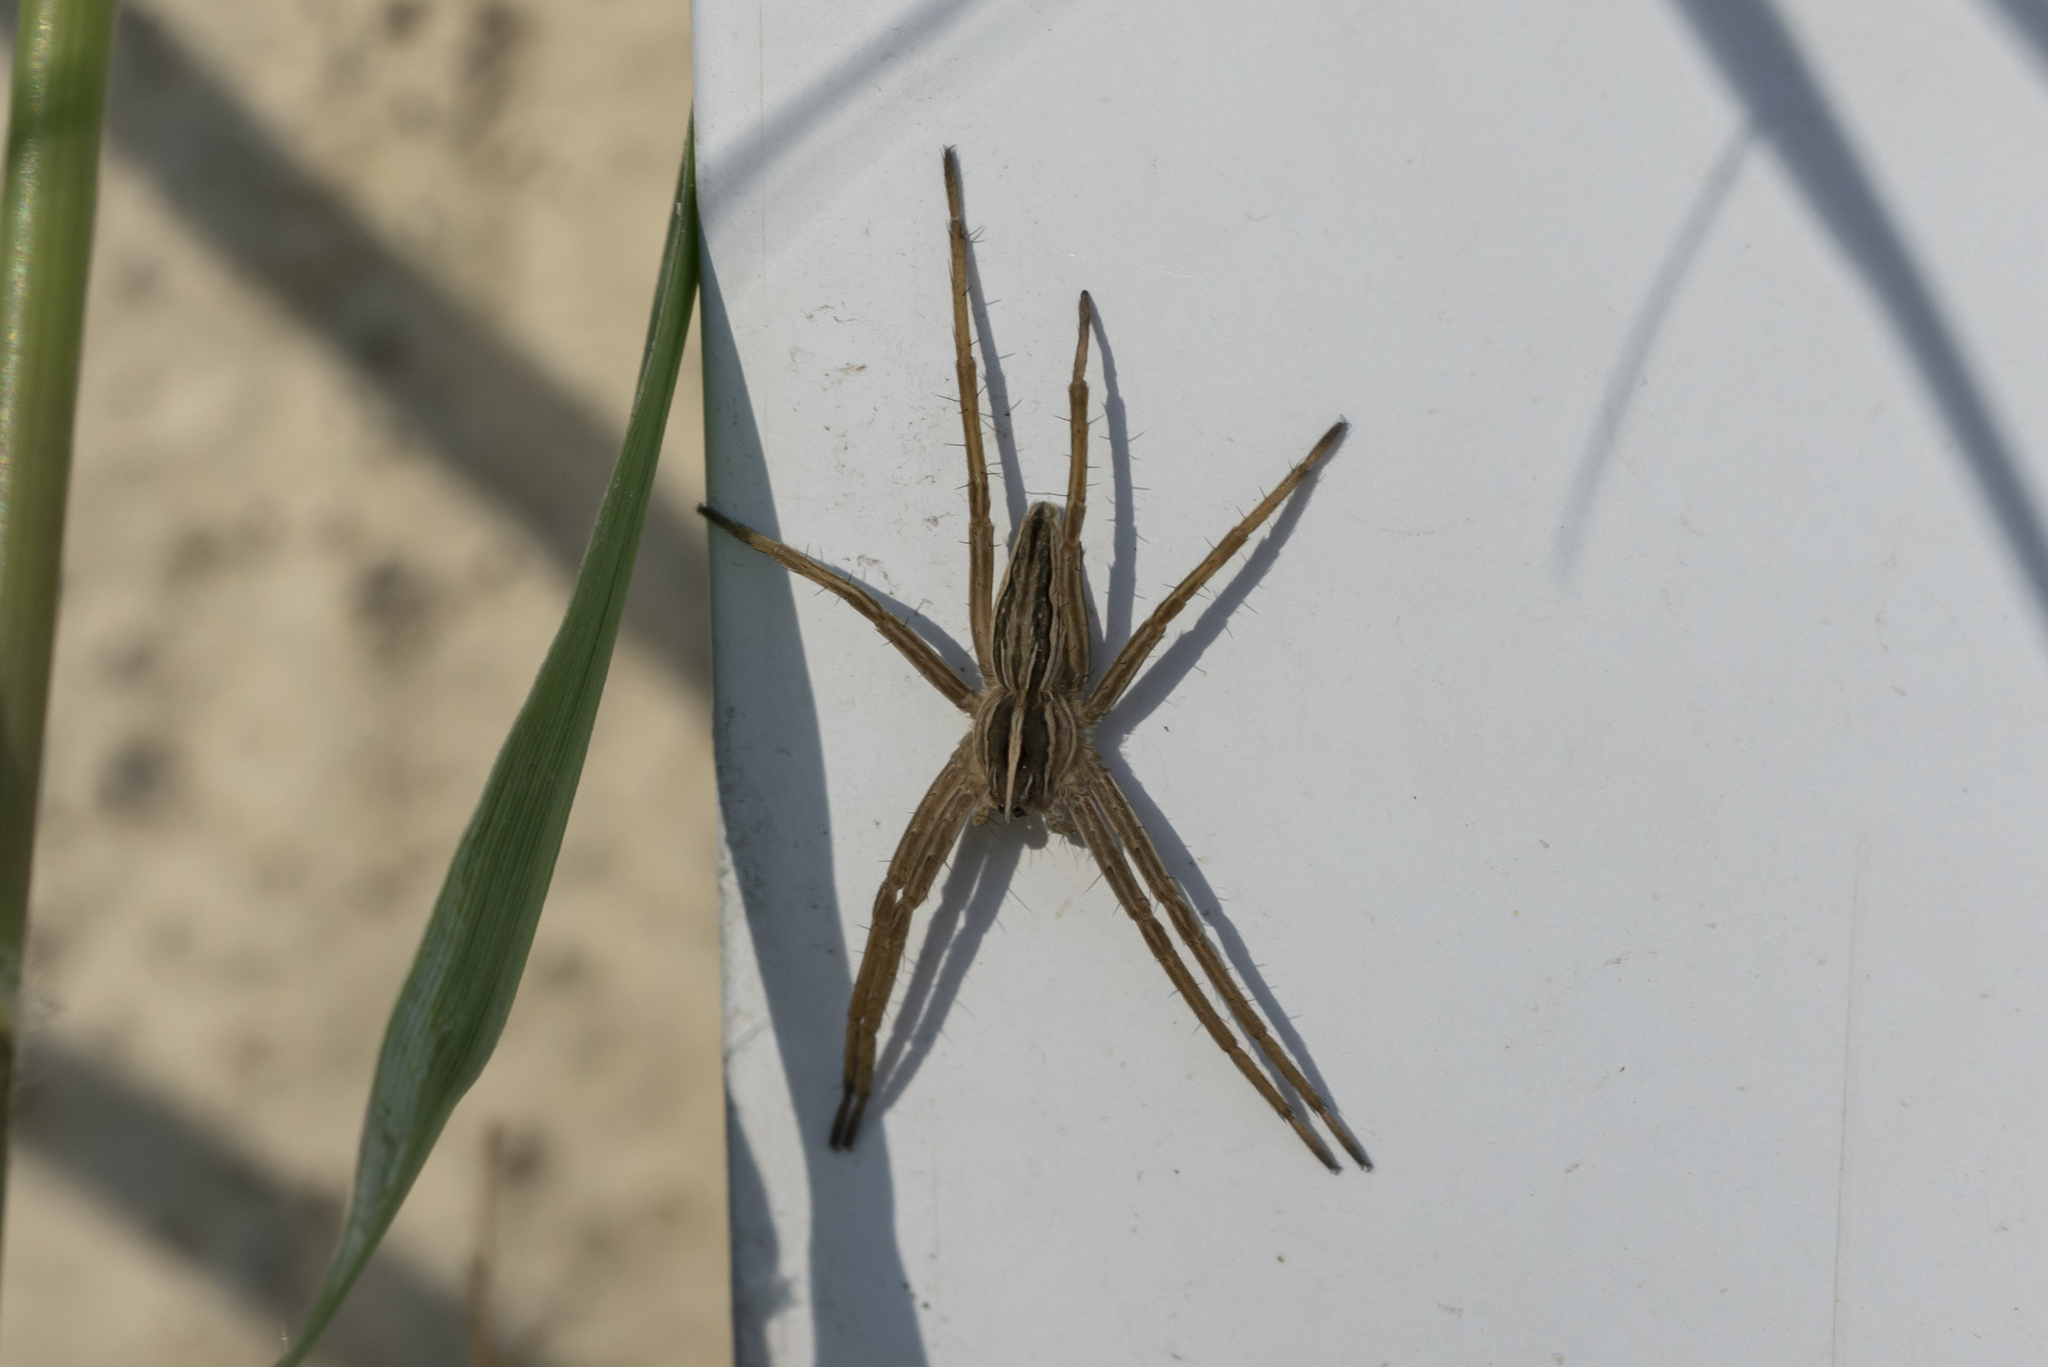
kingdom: Animalia
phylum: Arthropoda
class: Arachnida
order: Araneae
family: Pisauridae
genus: Pisaura
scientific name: Pisaura mirabilis
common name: Tent spider
